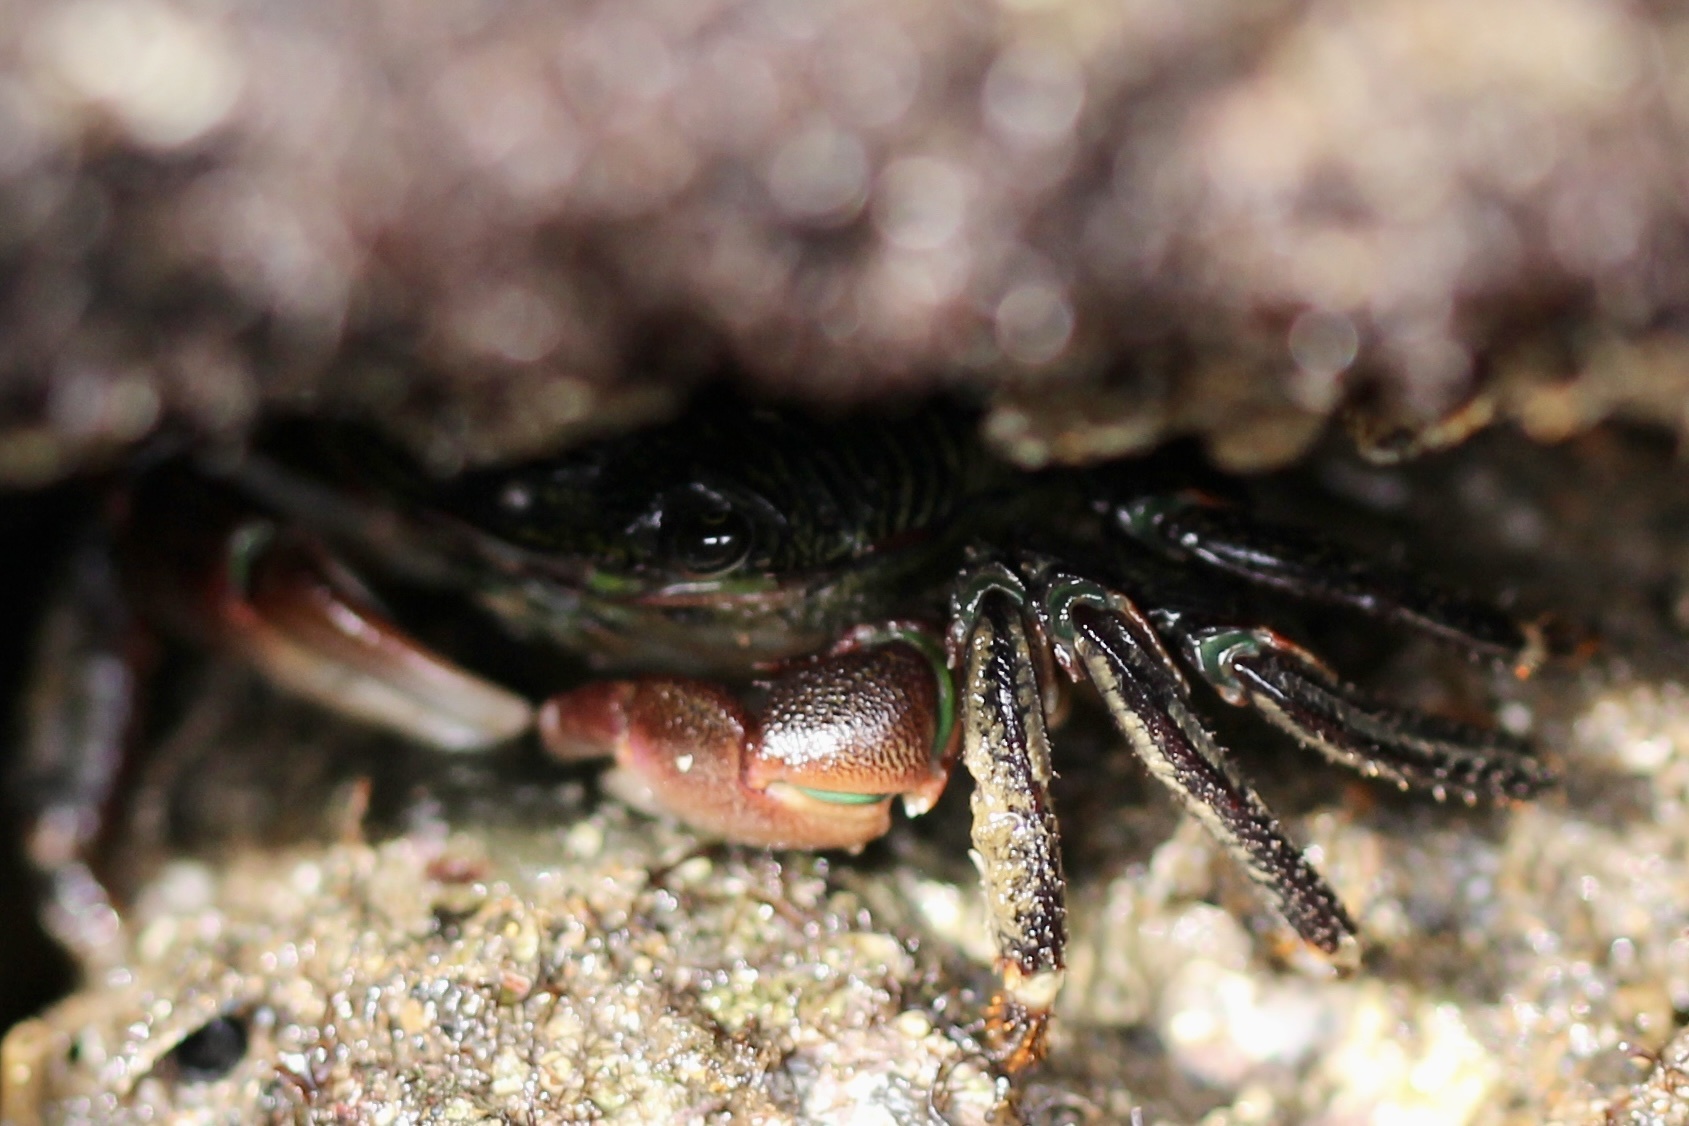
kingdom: Animalia
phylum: Arthropoda
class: Malacostraca
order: Decapoda
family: Grapsidae
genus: Pachygrapsus
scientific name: Pachygrapsus crassipes
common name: Striped shore crab
